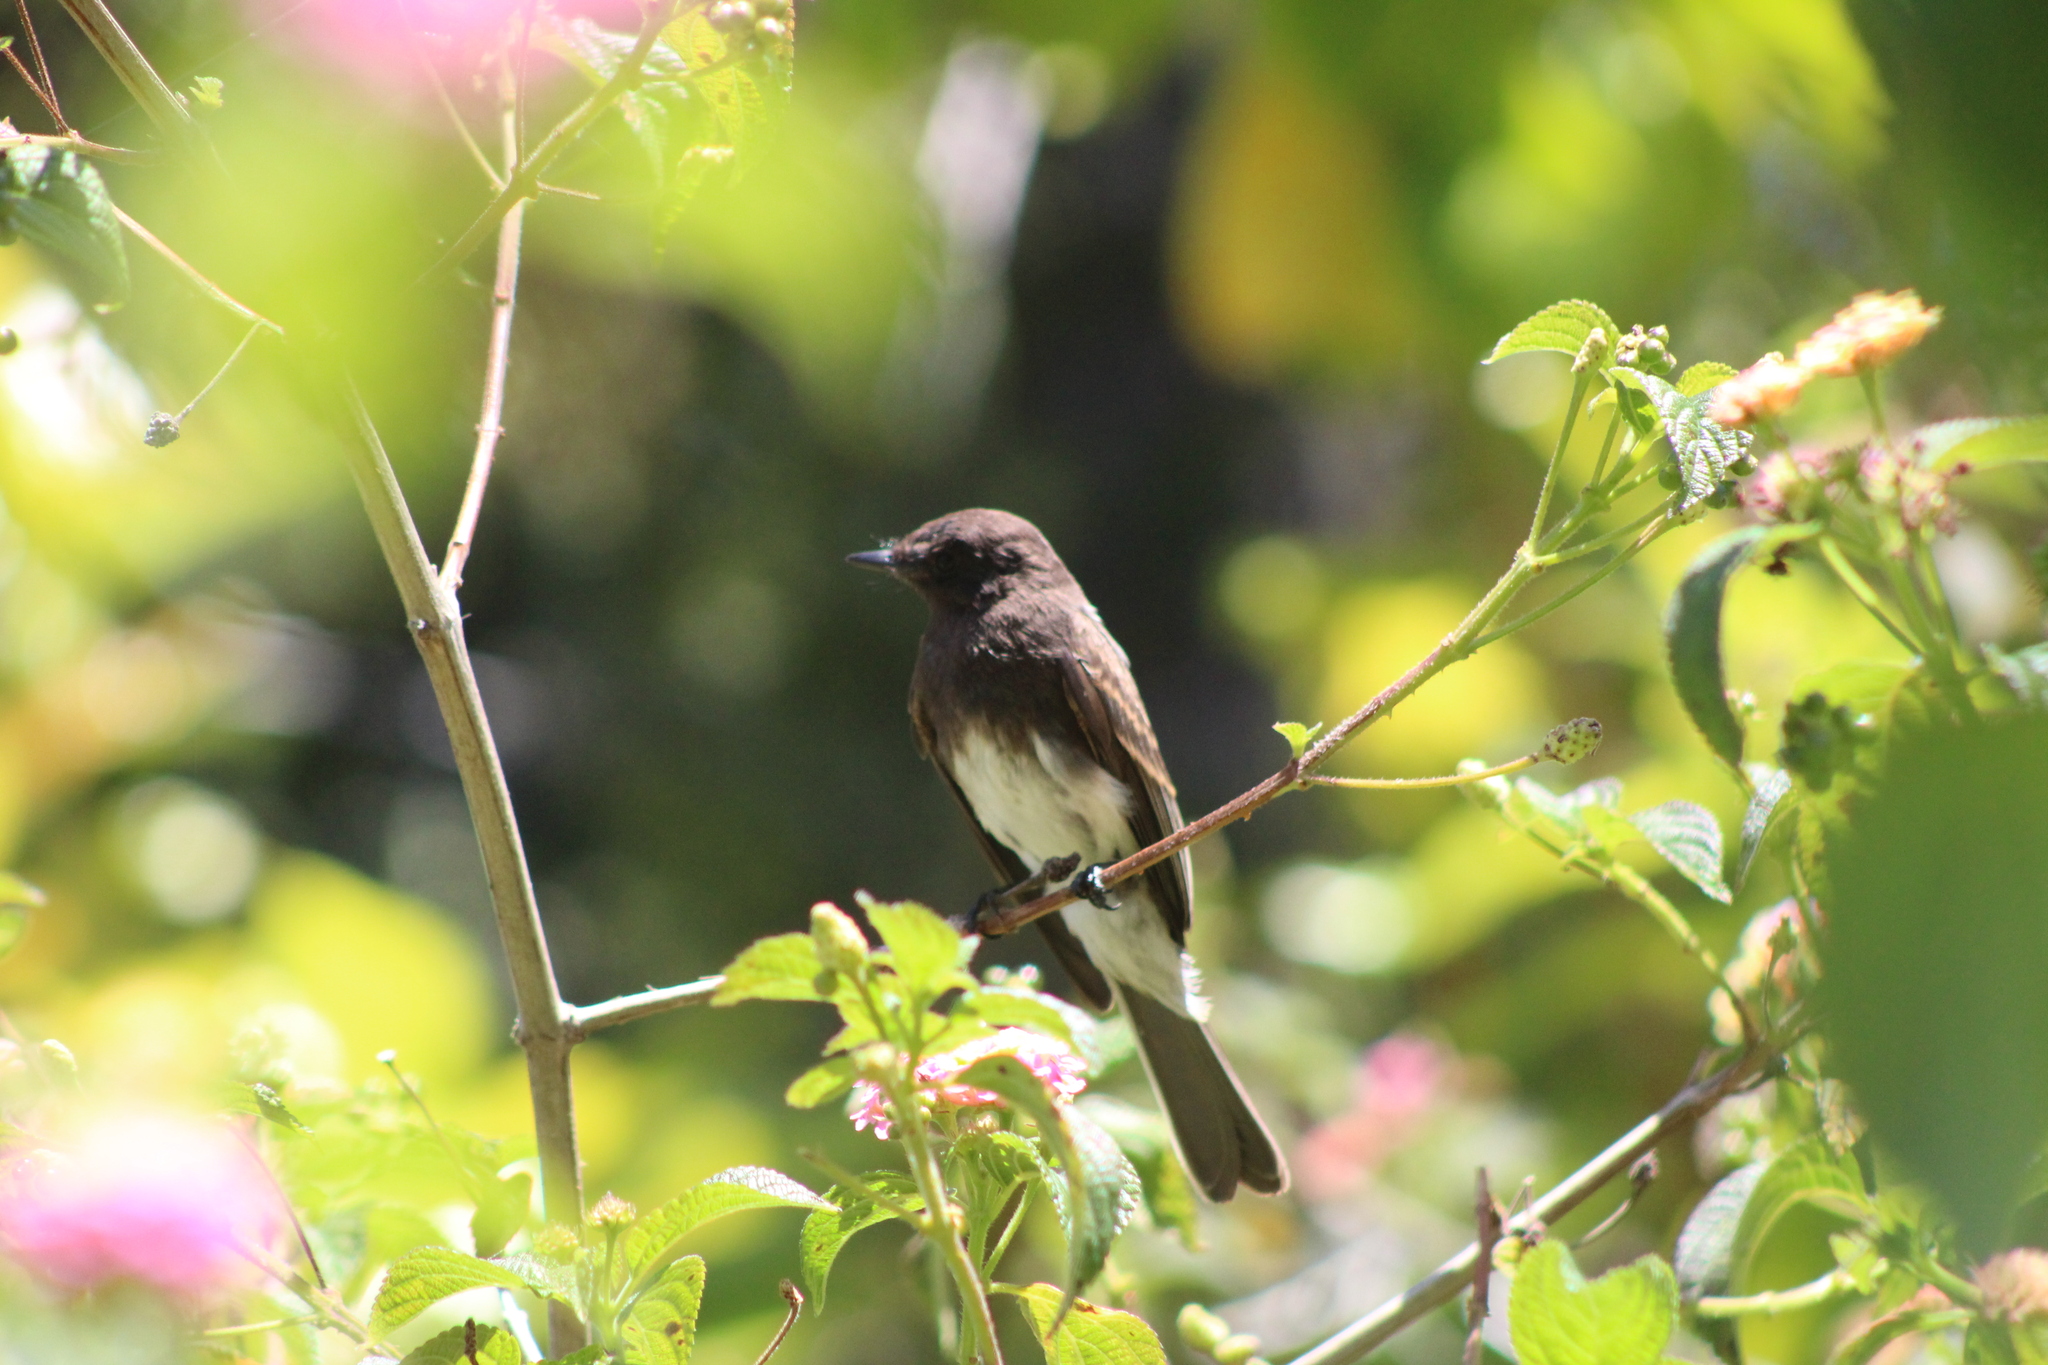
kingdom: Animalia
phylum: Chordata
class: Aves
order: Passeriformes
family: Tyrannidae
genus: Sayornis
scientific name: Sayornis nigricans
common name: Black phoebe
